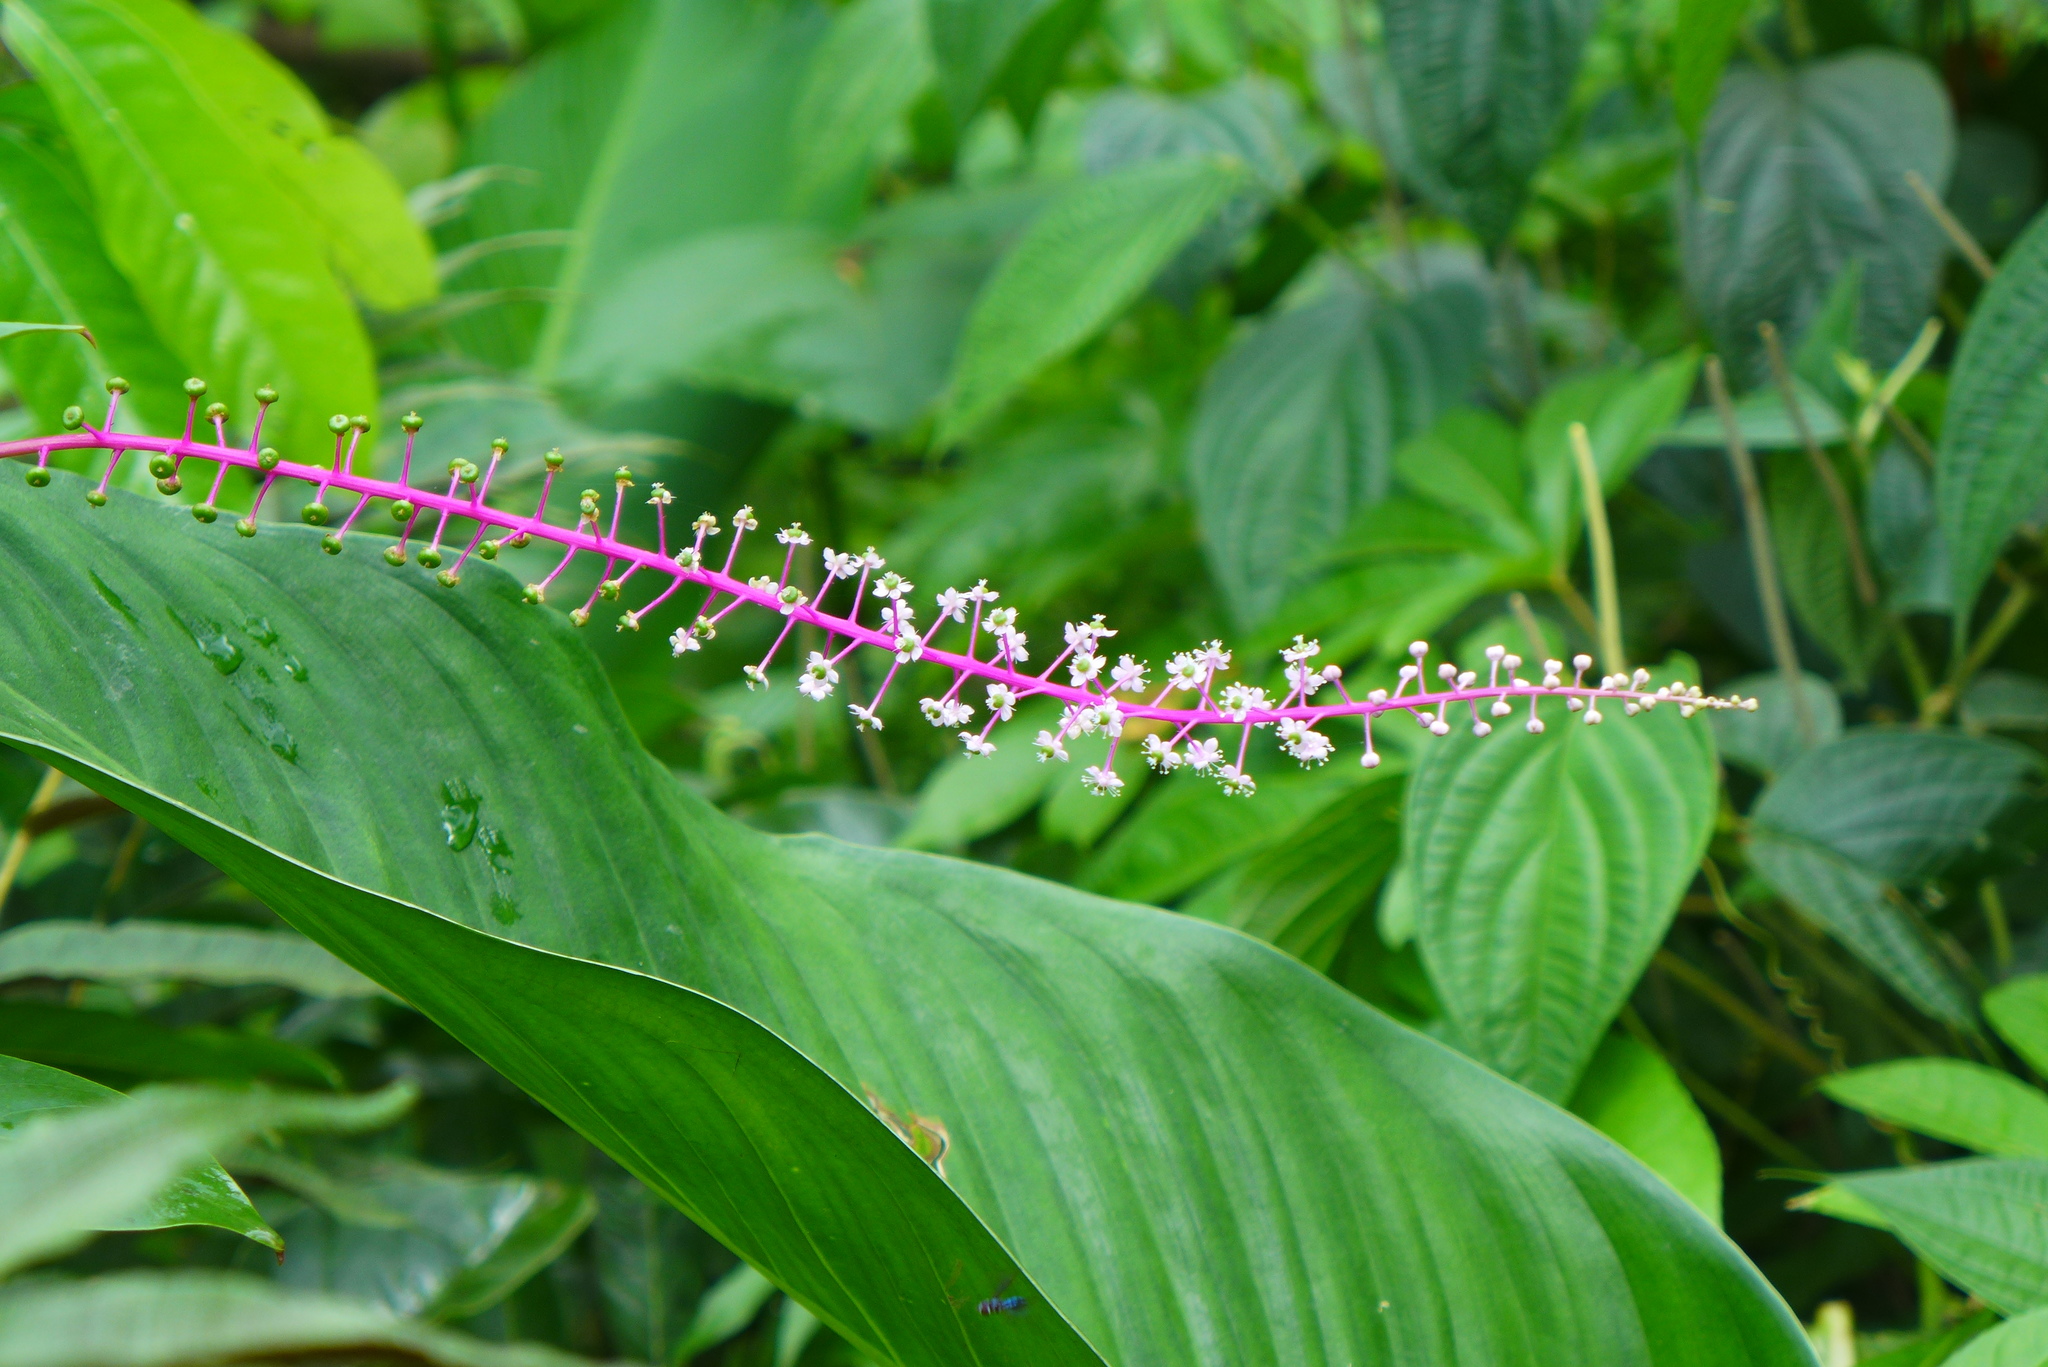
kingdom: Plantae
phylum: Tracheophyta
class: Magnoliopsida
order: Caryophyllales
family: Phytolaccaceae
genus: Phytolacca
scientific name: Phytolacca rivinoides
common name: Venezuelan pokeweed
